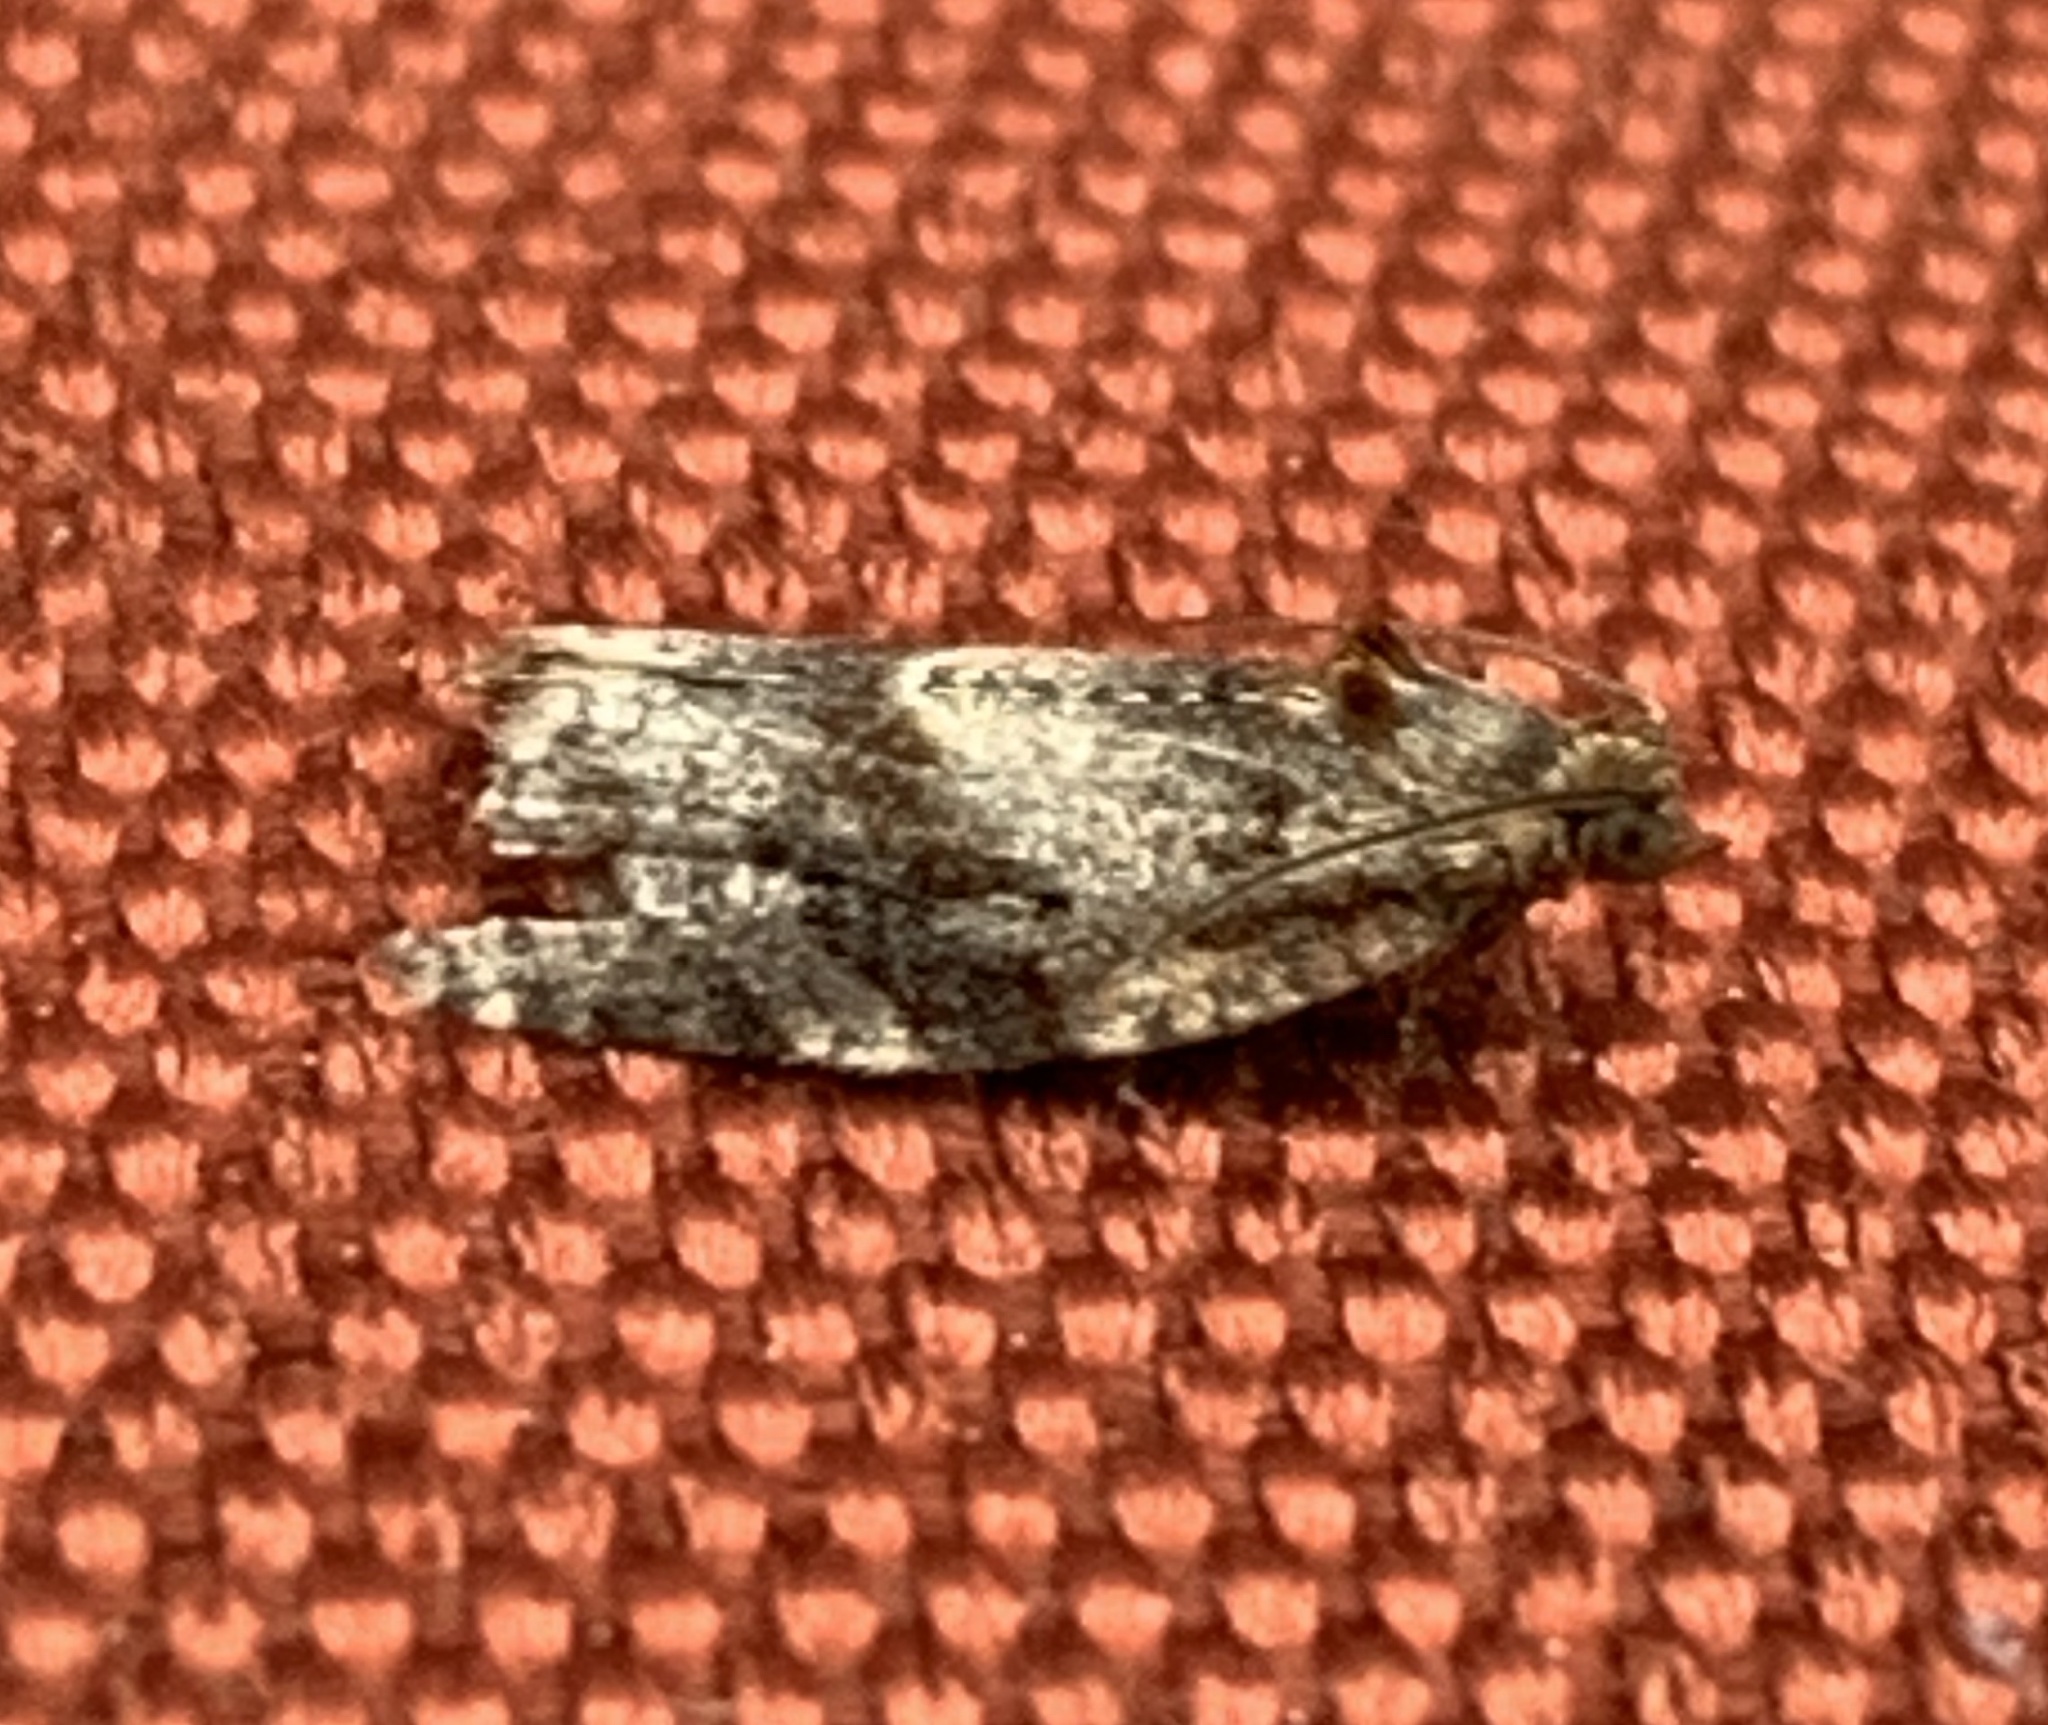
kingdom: Animalia
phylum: Arthropoda
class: Insecta
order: Lepidoptera
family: Tortricidae
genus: Argyrotaenia
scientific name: Argyrotaenia velutinana
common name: Red-banded leafroller moth
